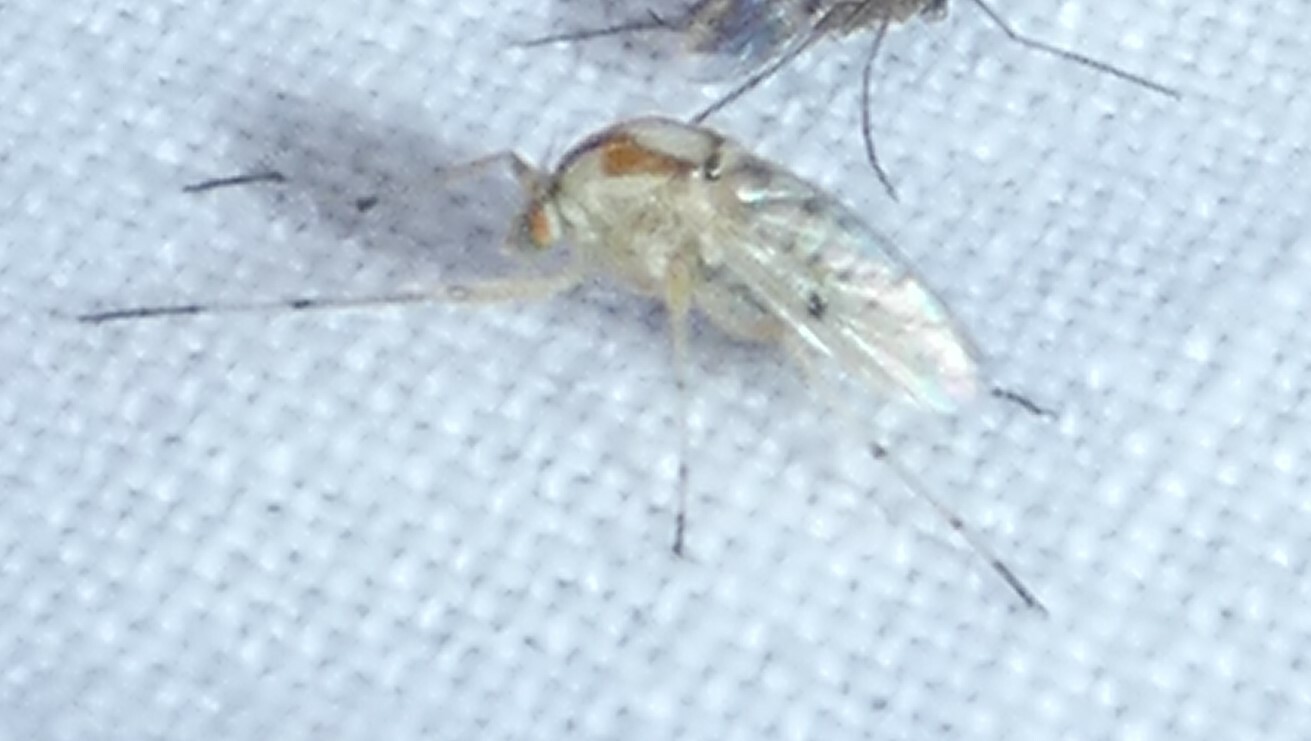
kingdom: Animalia
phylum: Arthropoda
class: Insecta
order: Diptera
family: Chironomidae
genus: Coelotanypus
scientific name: Coelotanypus concinnus
